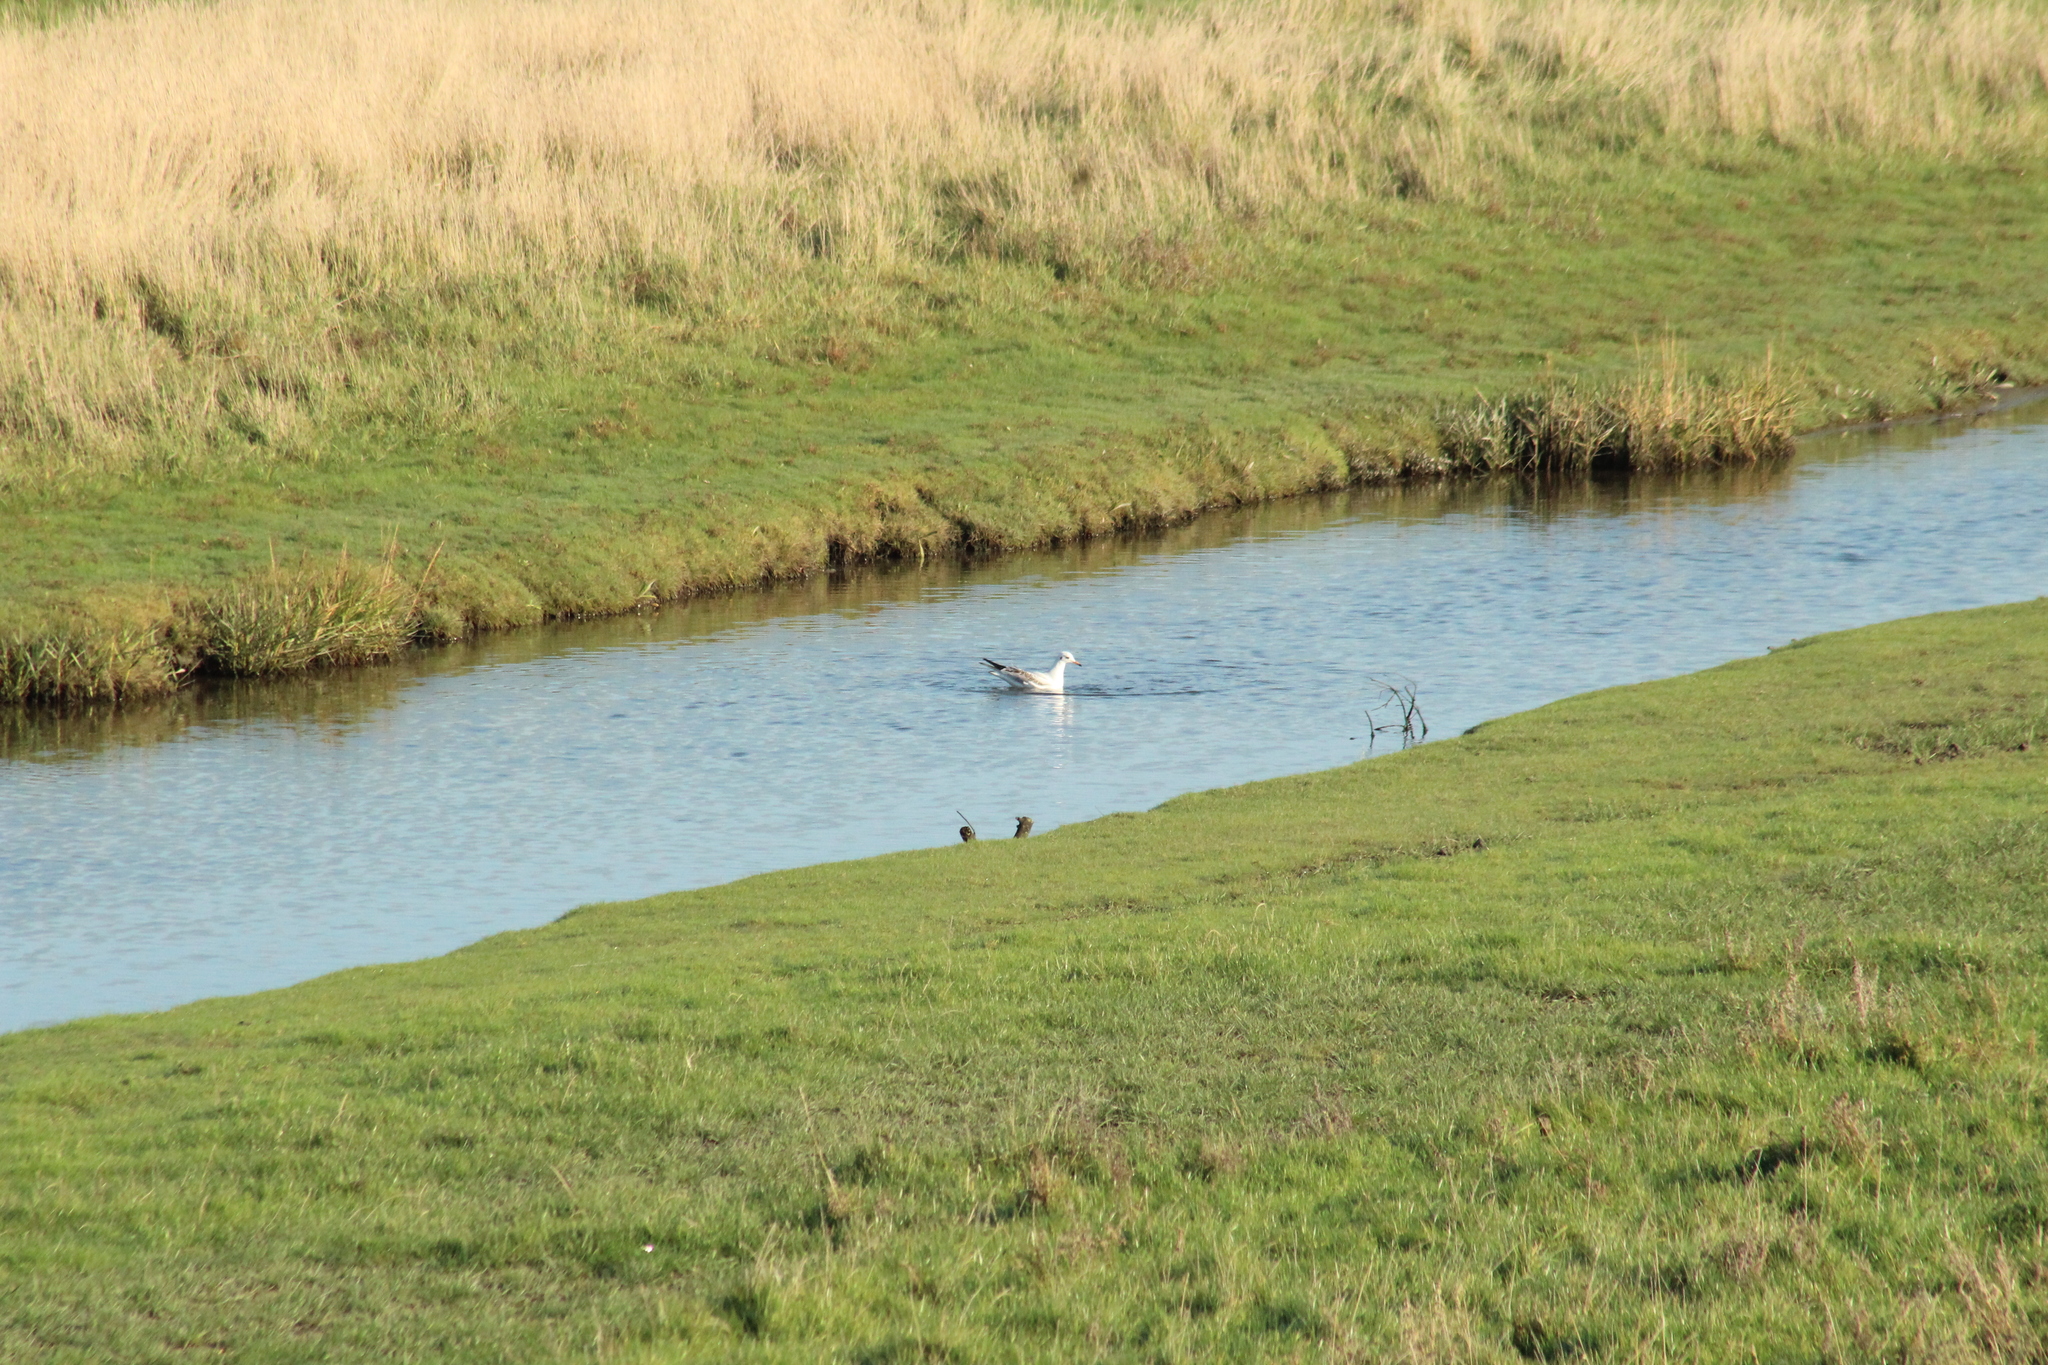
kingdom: Animalia
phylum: Chordata
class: Aves
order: Charadriiformes
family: Laridae
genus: Chroicocephalus
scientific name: Chroicocephalus ridibundus
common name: Black-headed gull
